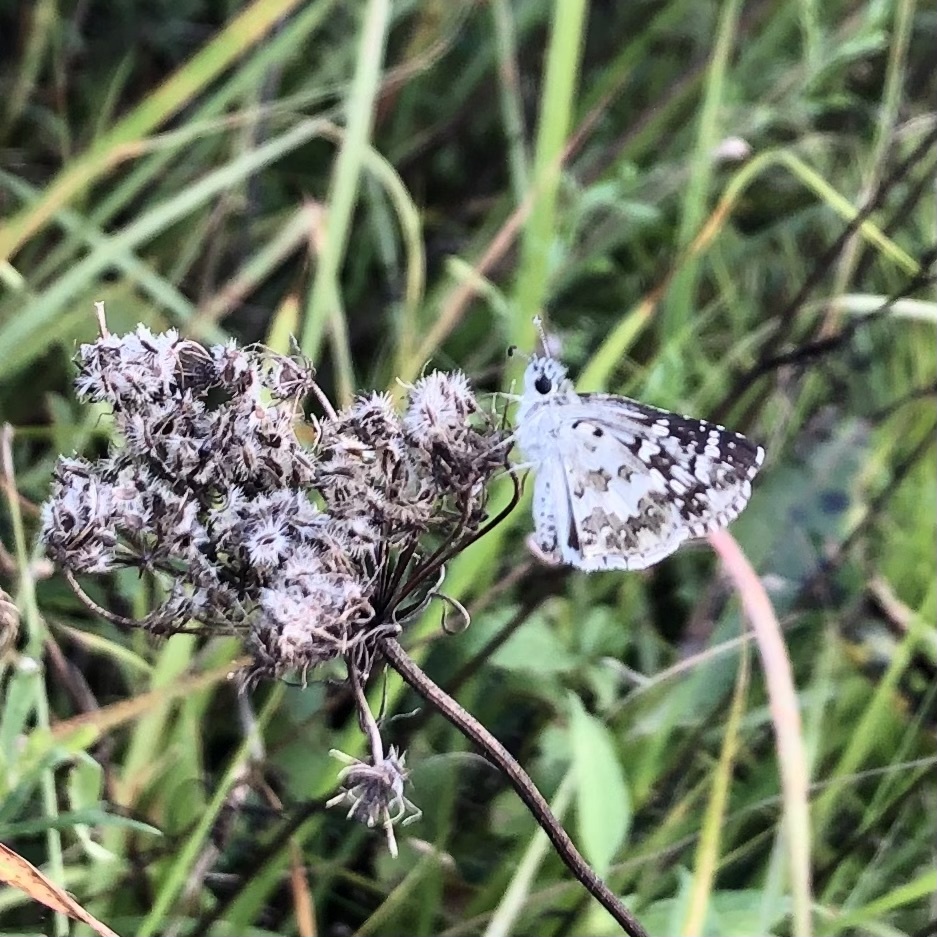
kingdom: Animalia
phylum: Arthropoda
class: Insecta
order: Lepidoptera
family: Hesperiidae
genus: Burnsius
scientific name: Burnsius communis
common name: Common checkered-skipper
